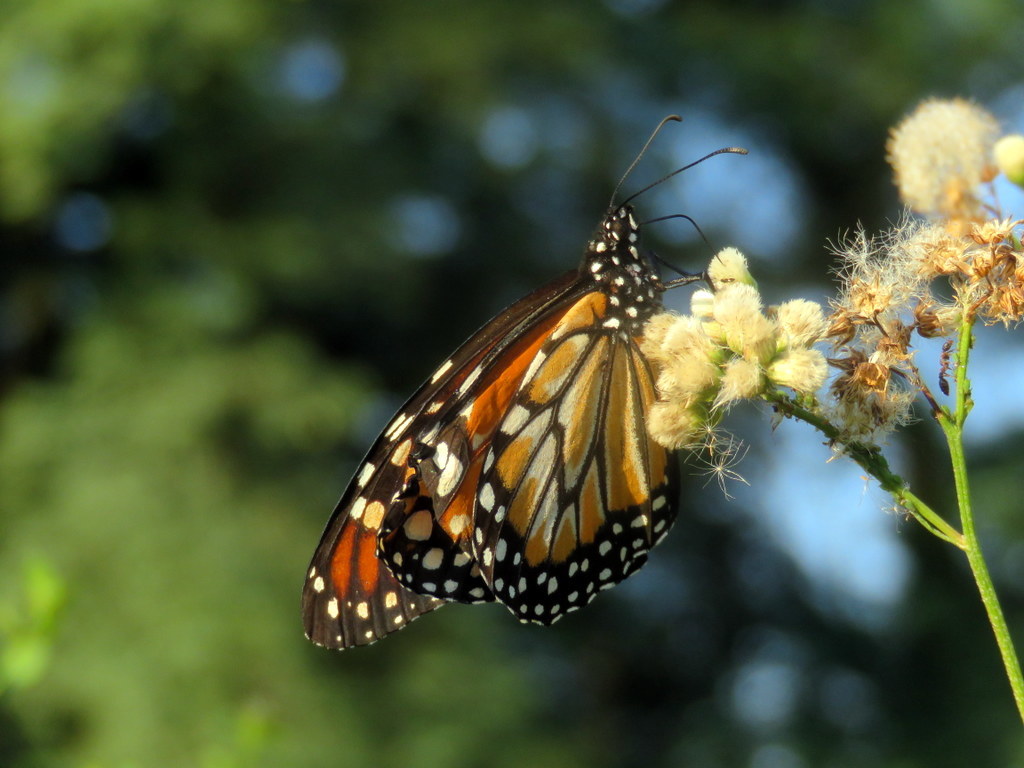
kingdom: Animalia
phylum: Arthropoda
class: Insecta
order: Lepidoptera
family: Nymphalidae
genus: Danaus
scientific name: Danaus erippus
